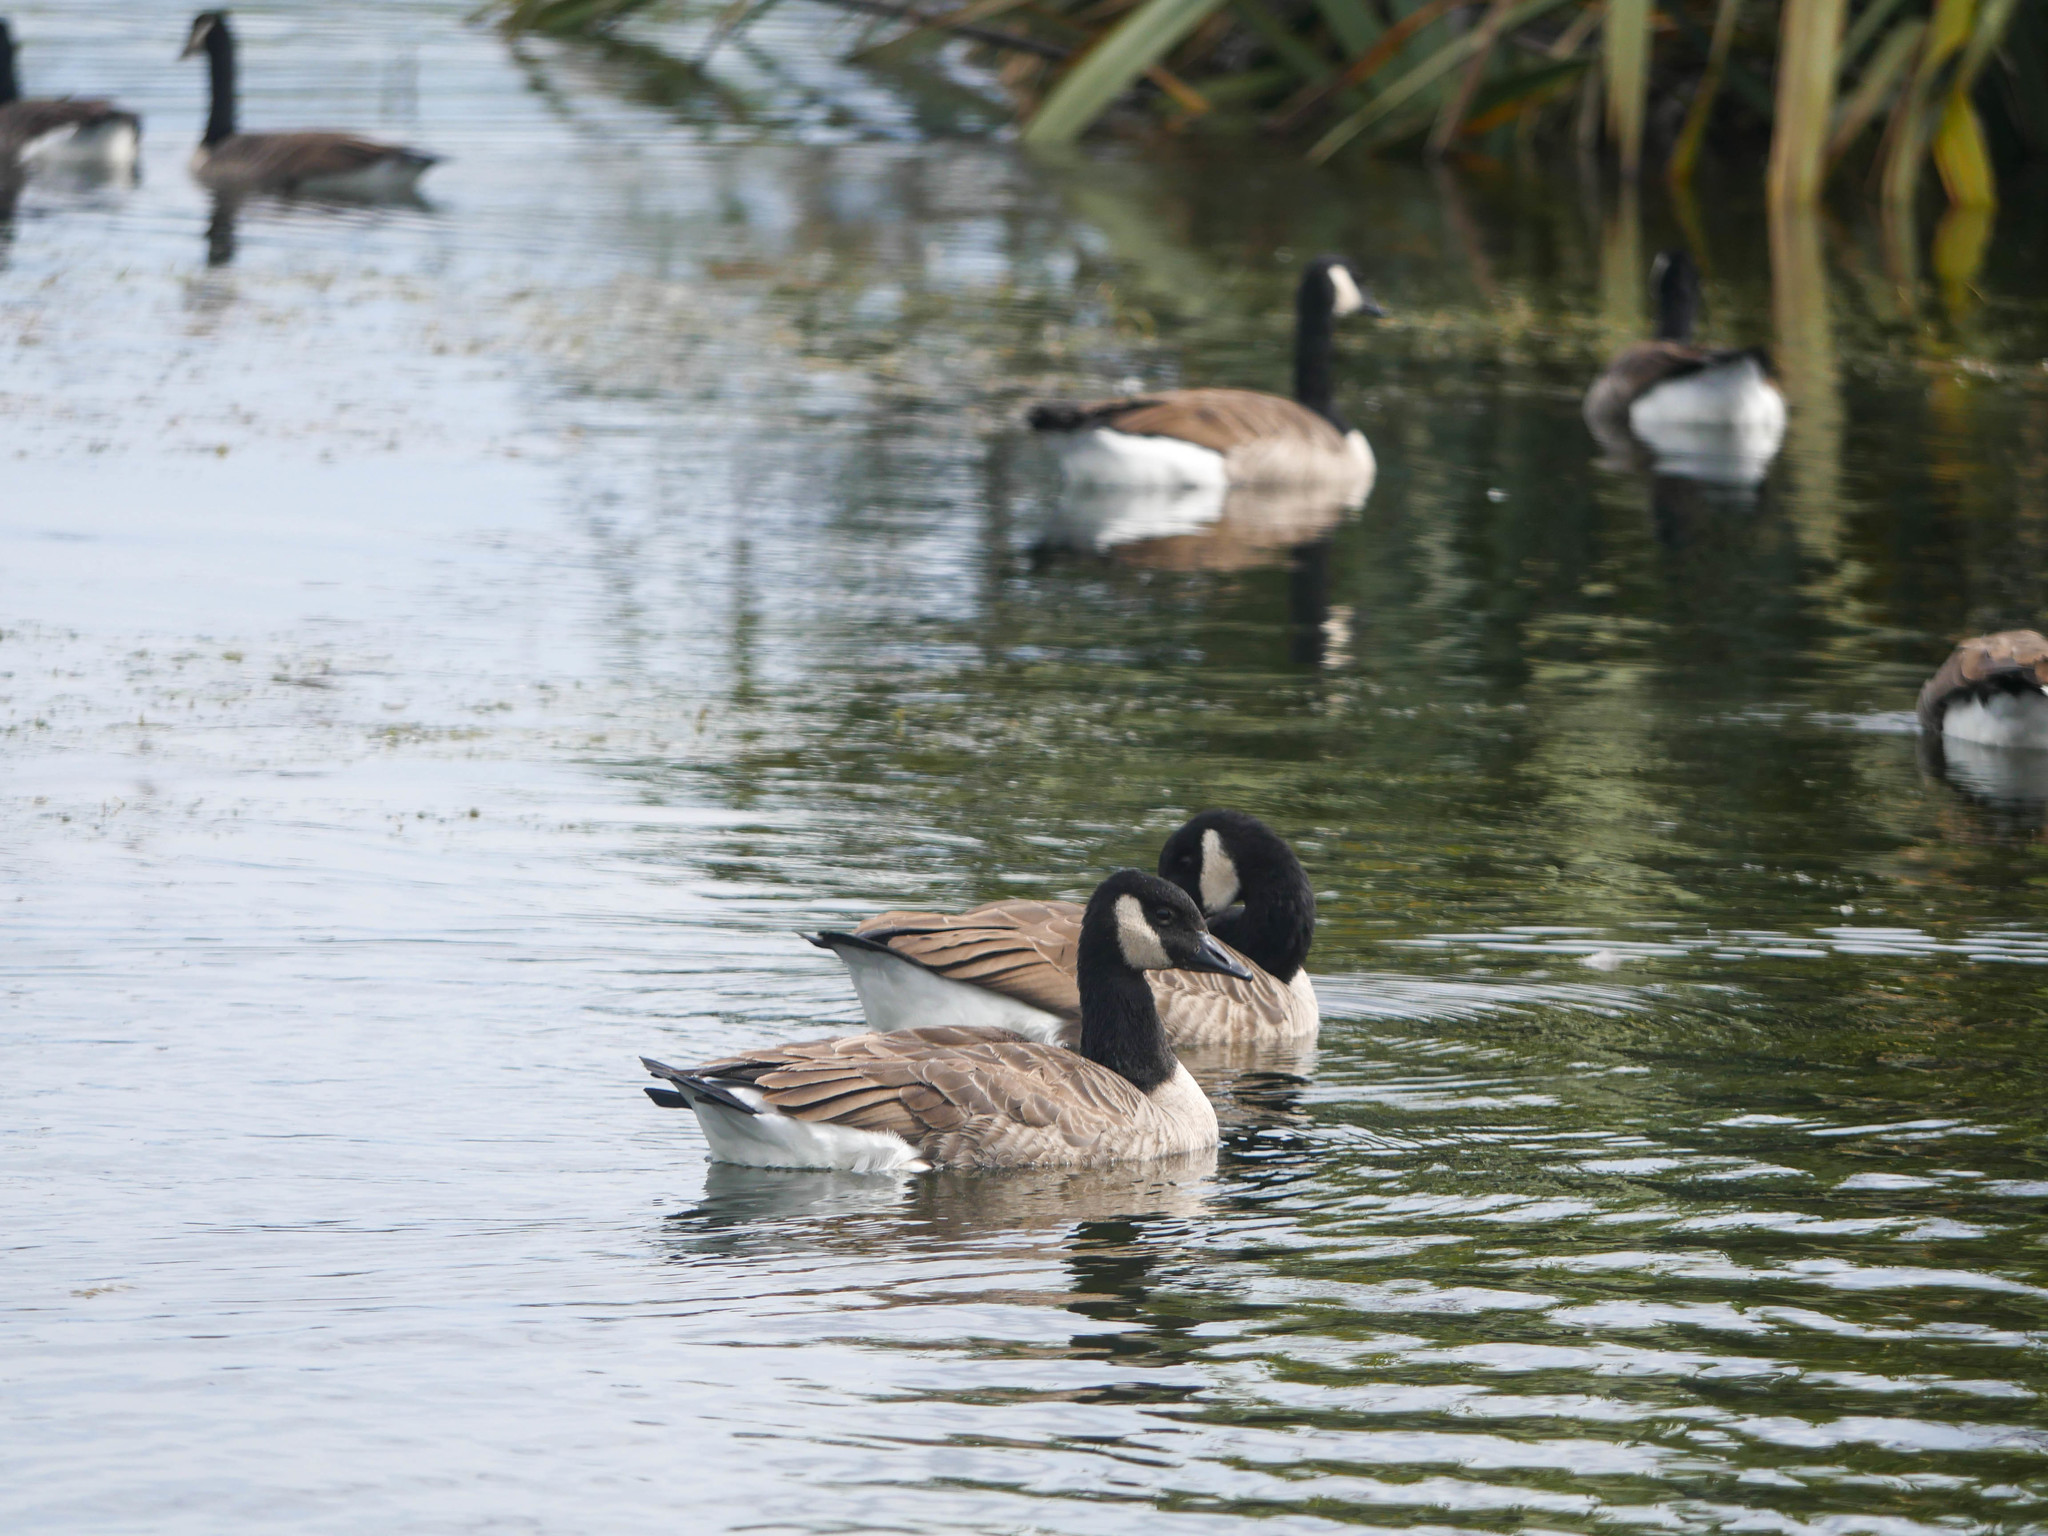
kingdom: Animalia
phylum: Chordata
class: Aves
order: Anseriformes
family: Anatidae
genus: Branta
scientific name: Branta canadensis
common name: Canada goose
